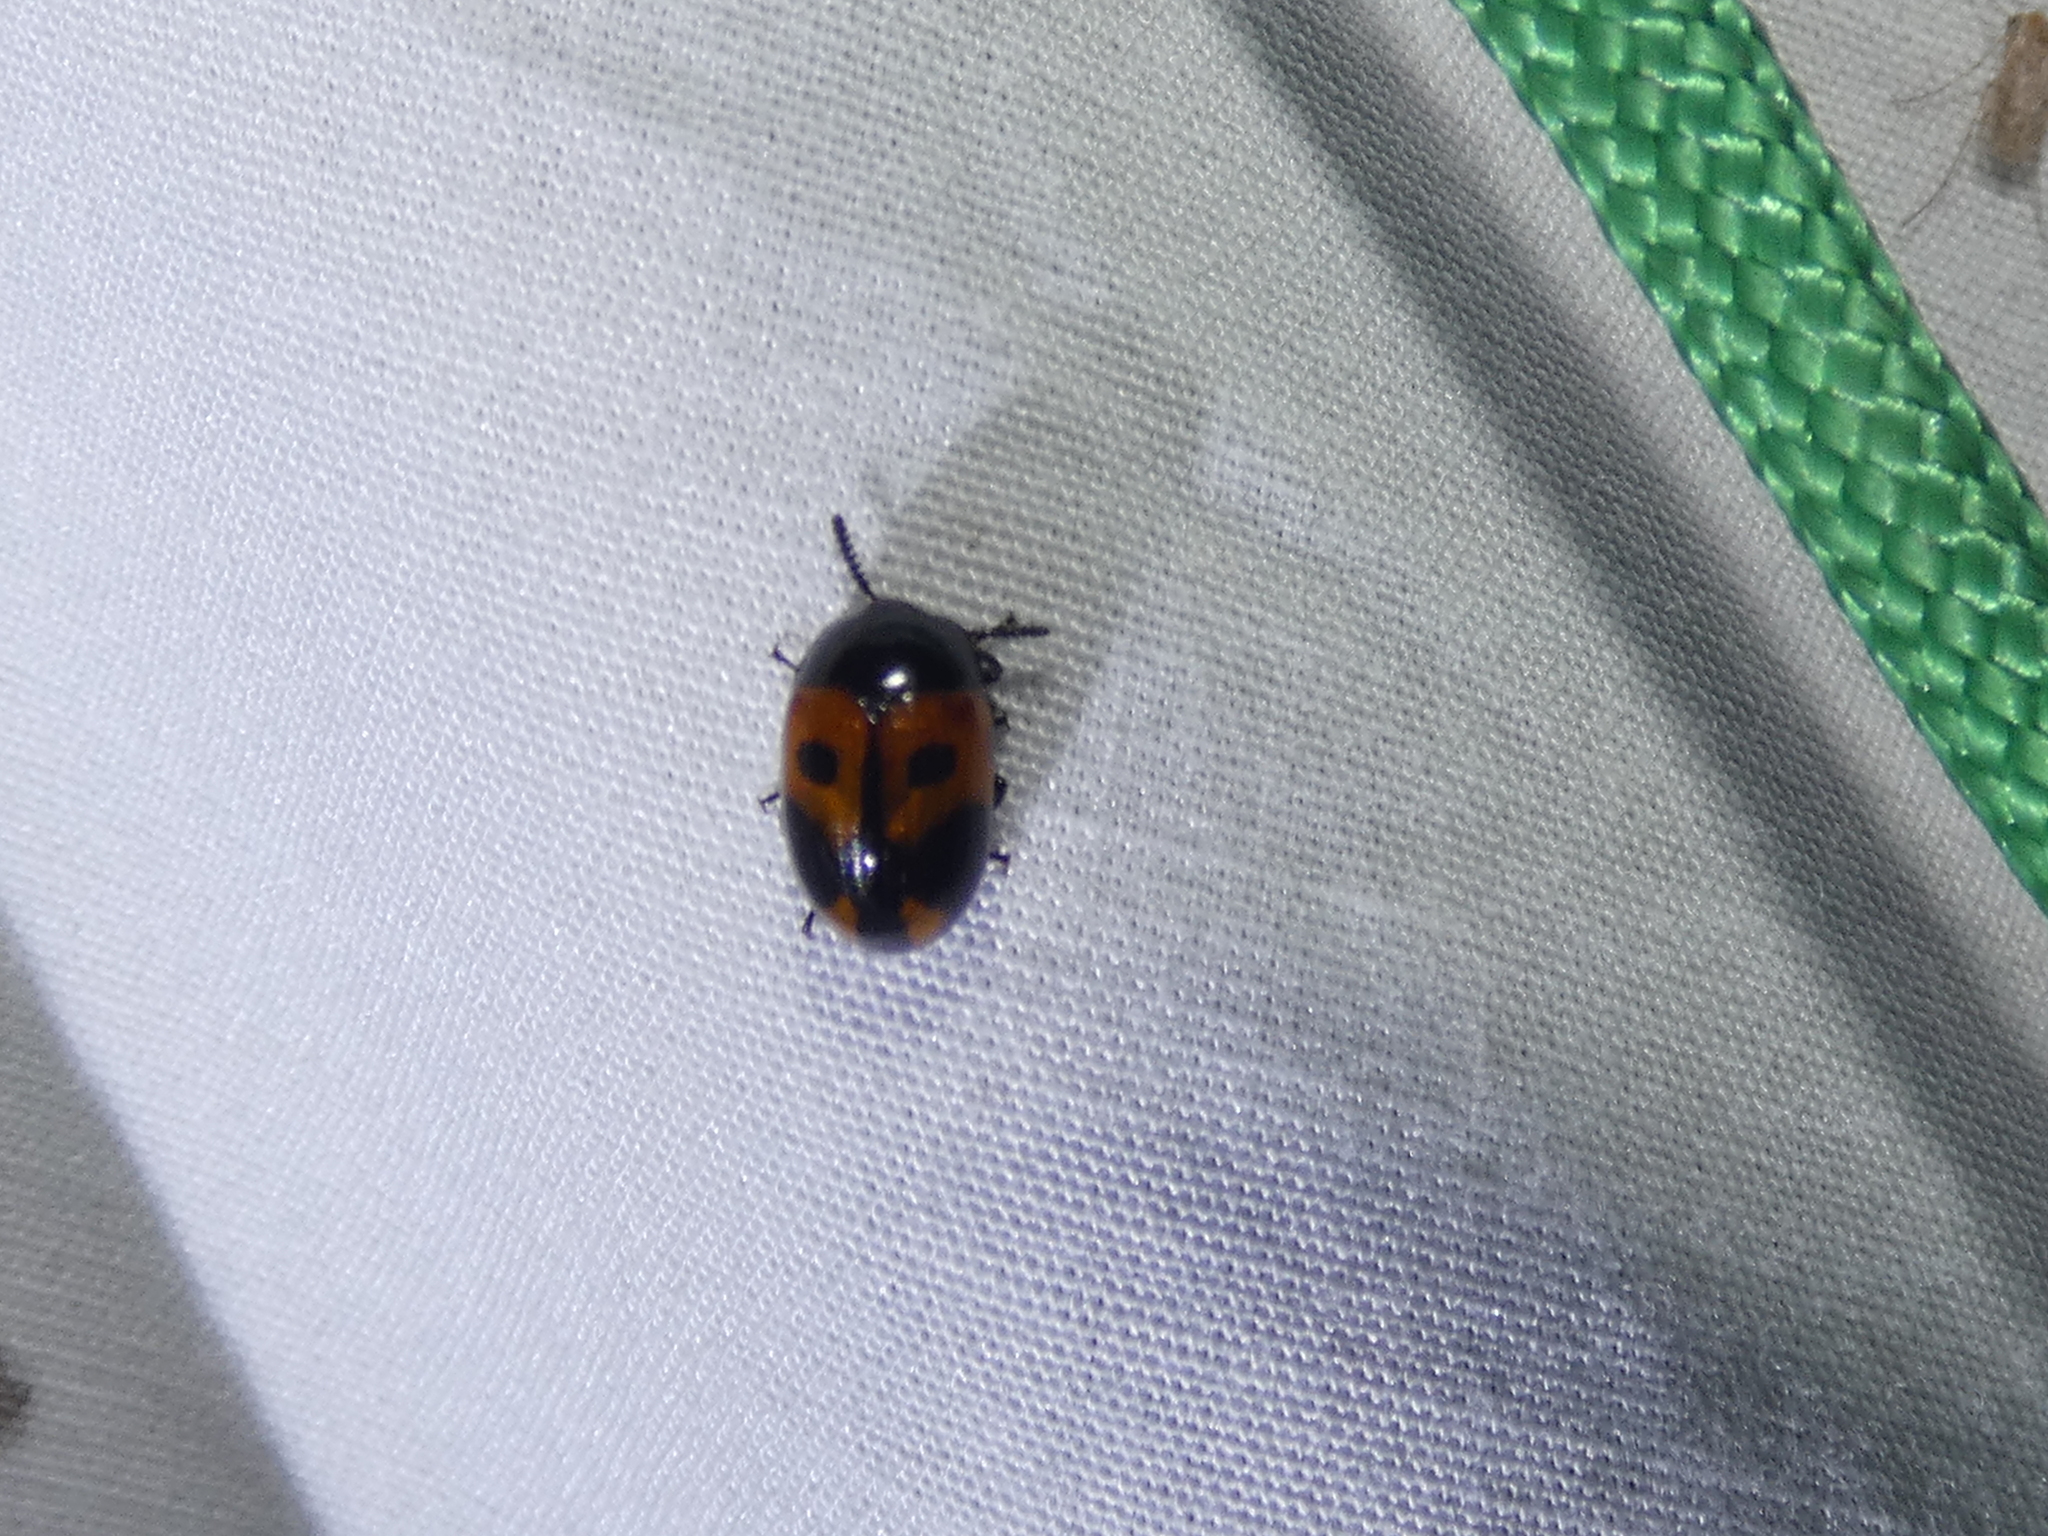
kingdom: Animalia
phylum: Arthropoda
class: Insecta
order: Coleoptera
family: Tenebrionidae
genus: Diaperis
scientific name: Diaperis maculata
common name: Darkling beetle
